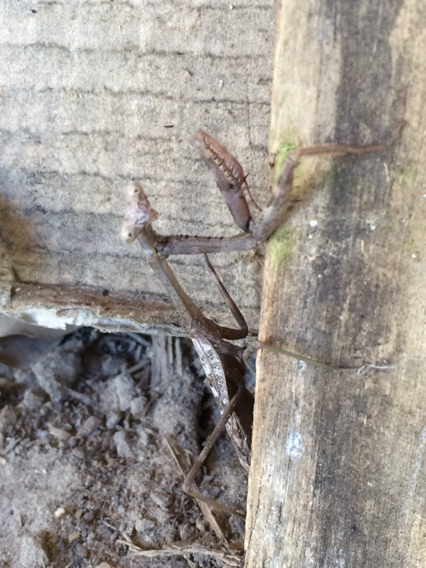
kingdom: Animalia
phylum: Arthropoda
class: Insecta
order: Mantodea
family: Mantidae
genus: Stagmomantis
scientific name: Stagmomantis carolina
